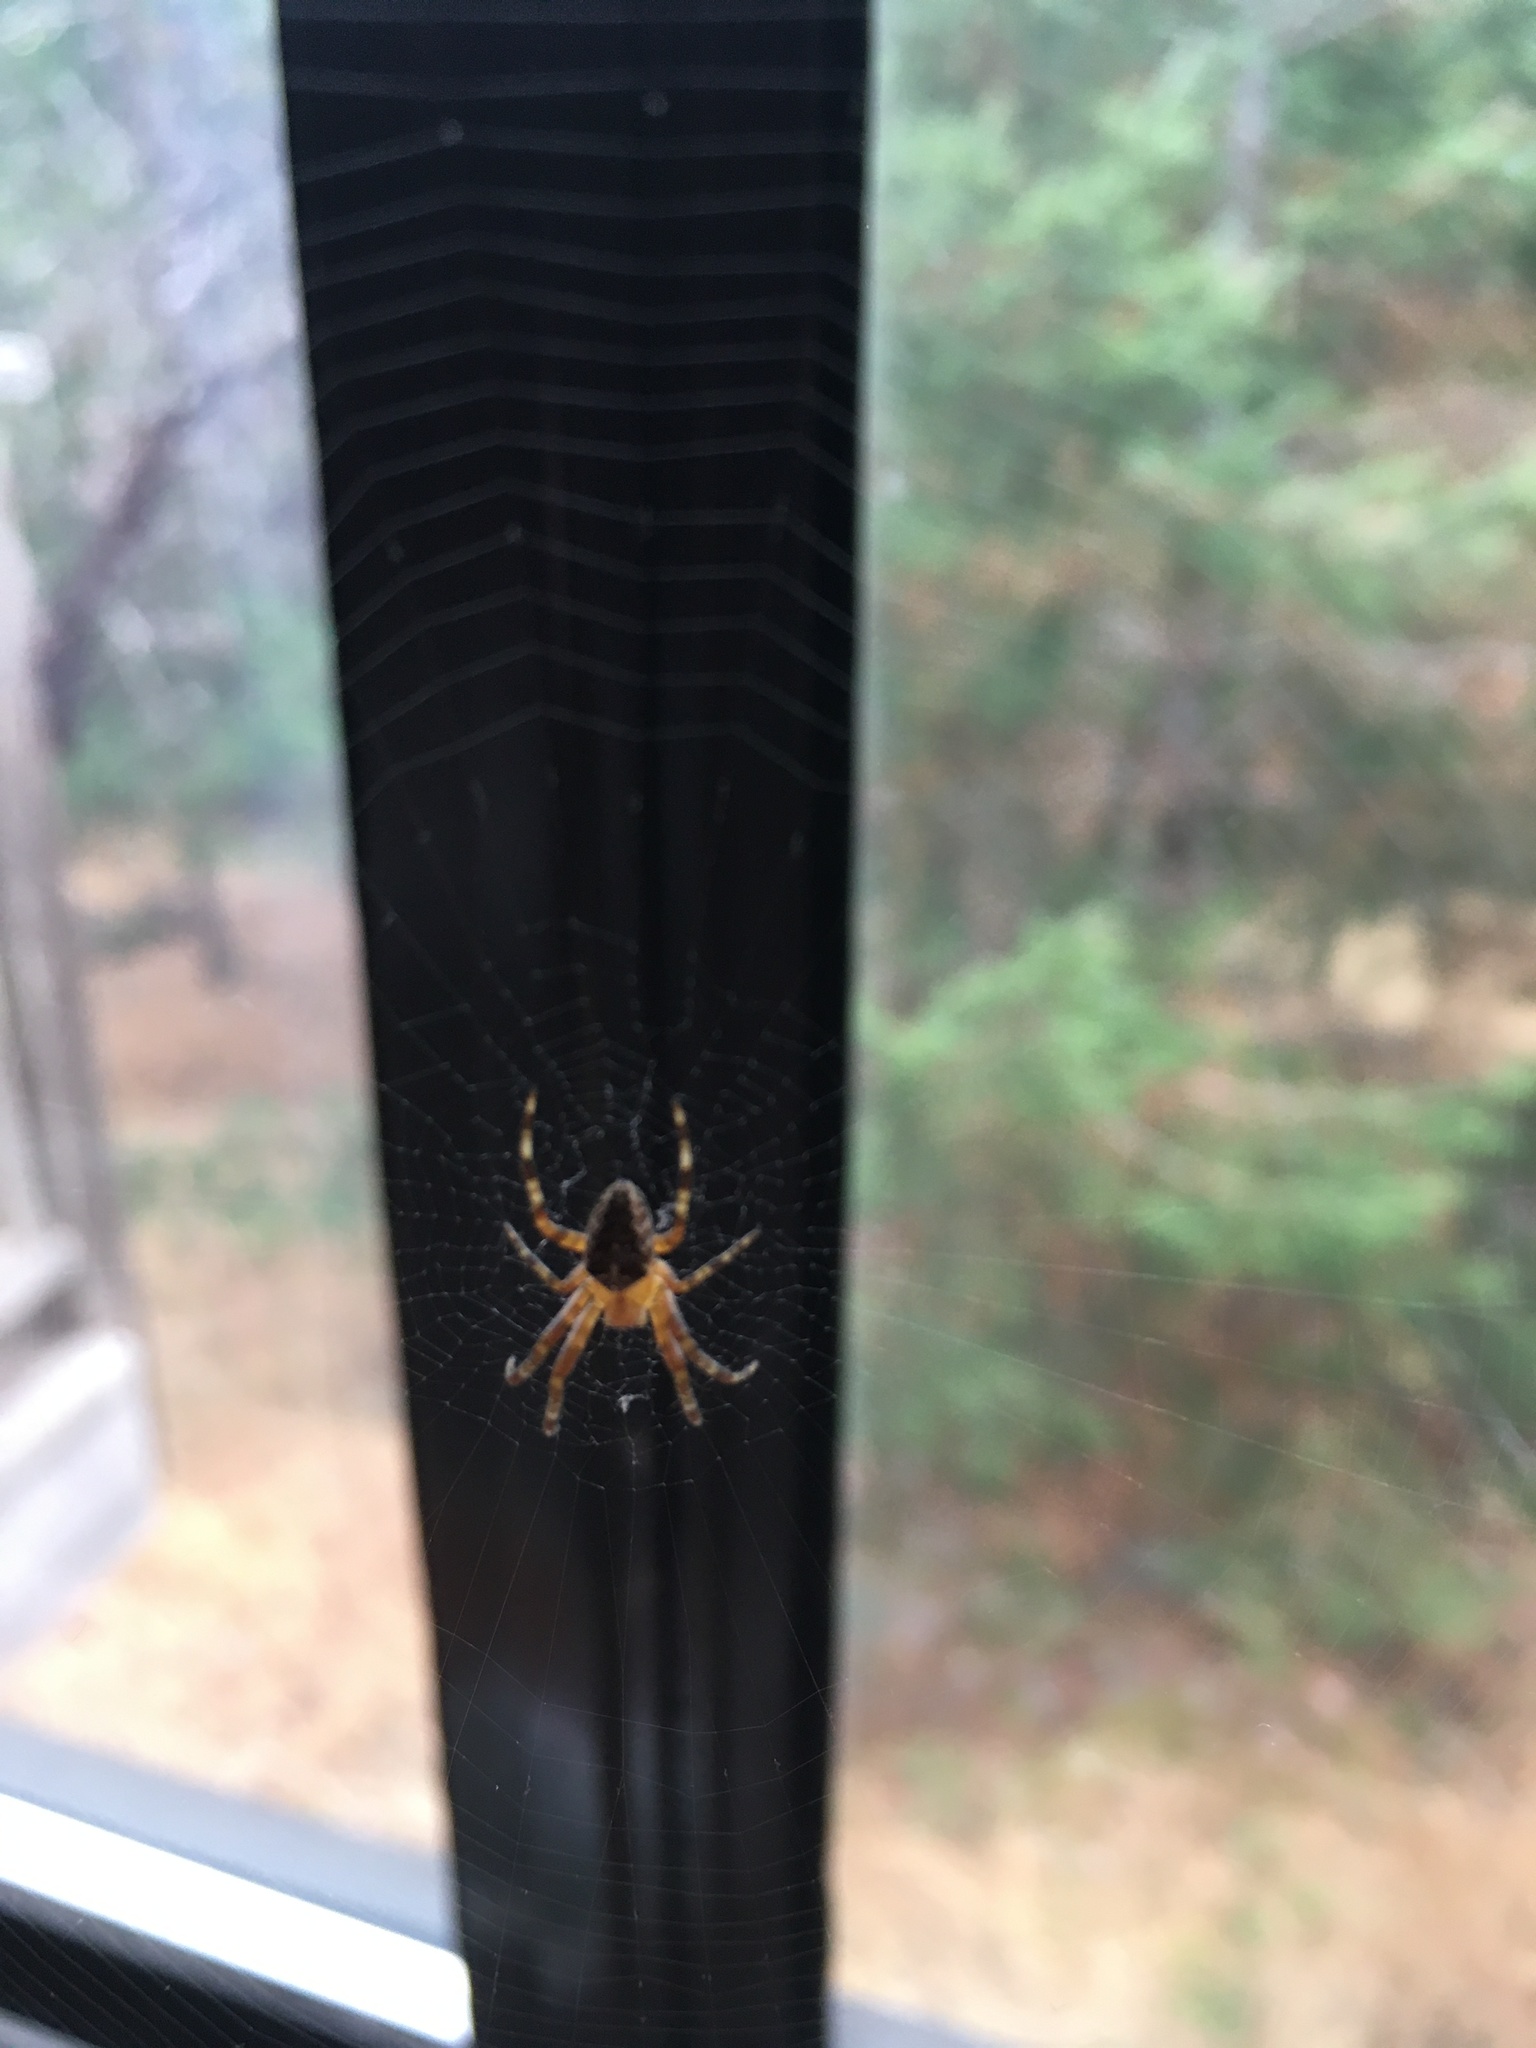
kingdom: Animalia
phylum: Arthropoda
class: Arachnida
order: Araneae
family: Araneidae
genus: Araneus
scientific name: Araneus diadematus
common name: Cross orbweaver
